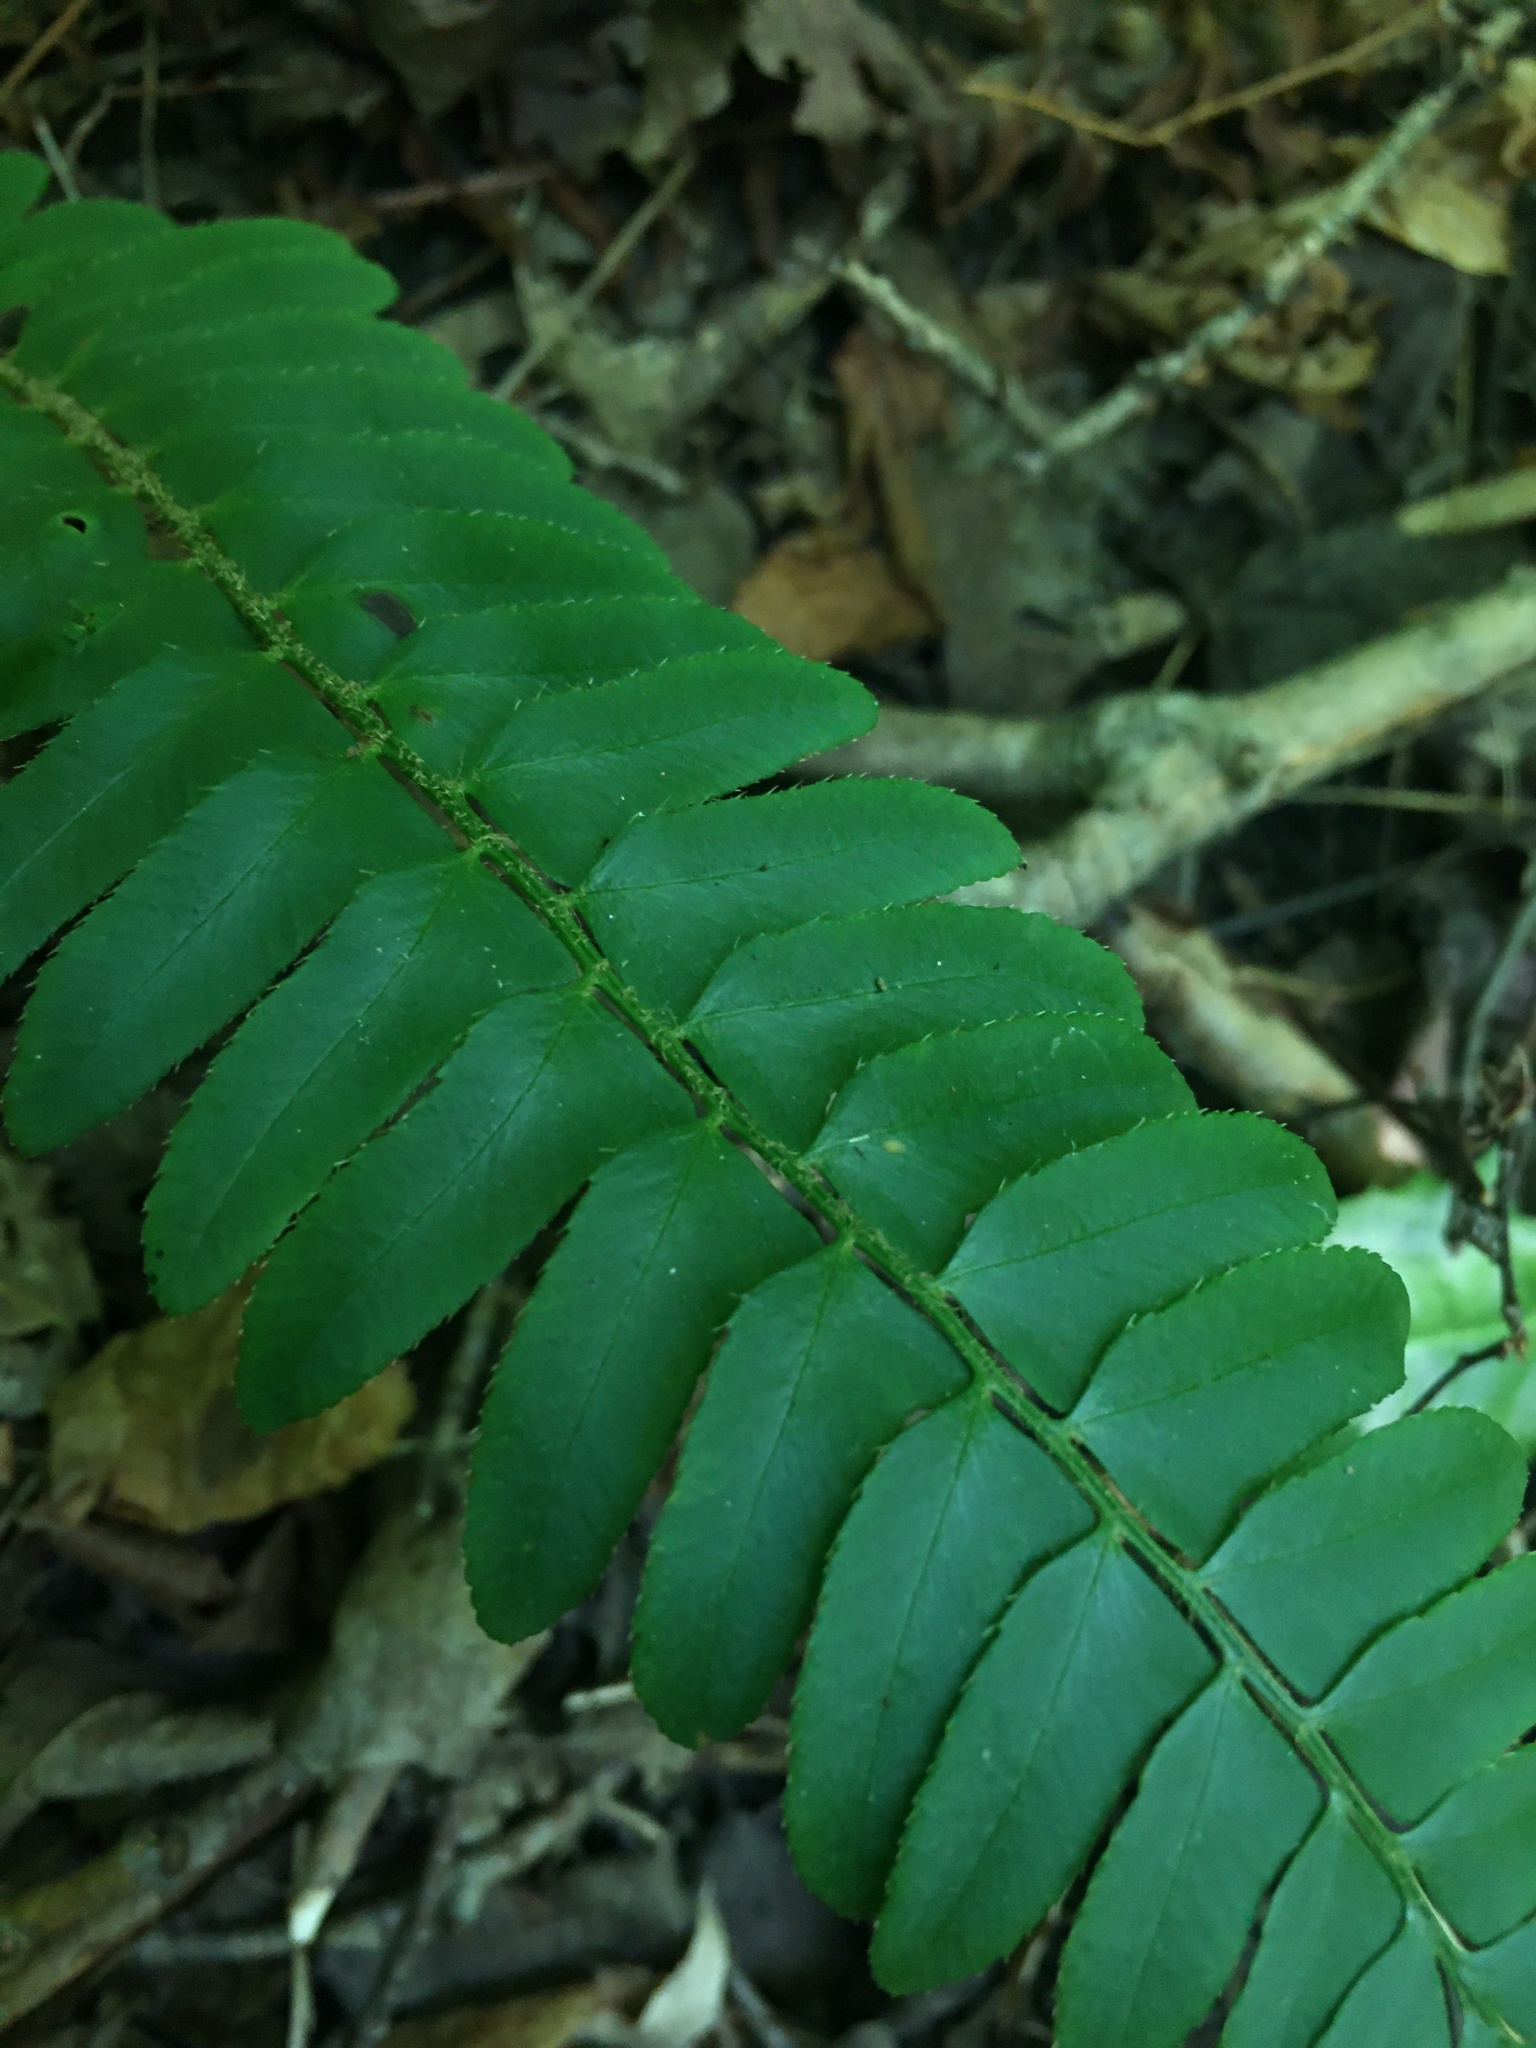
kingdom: Plantae
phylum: Tracheophyta
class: Polypodiopsida
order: Polypodiales
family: Dryopteridaceae
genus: Polystichum
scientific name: Polystichum acrostichoides
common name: Christmas fern
